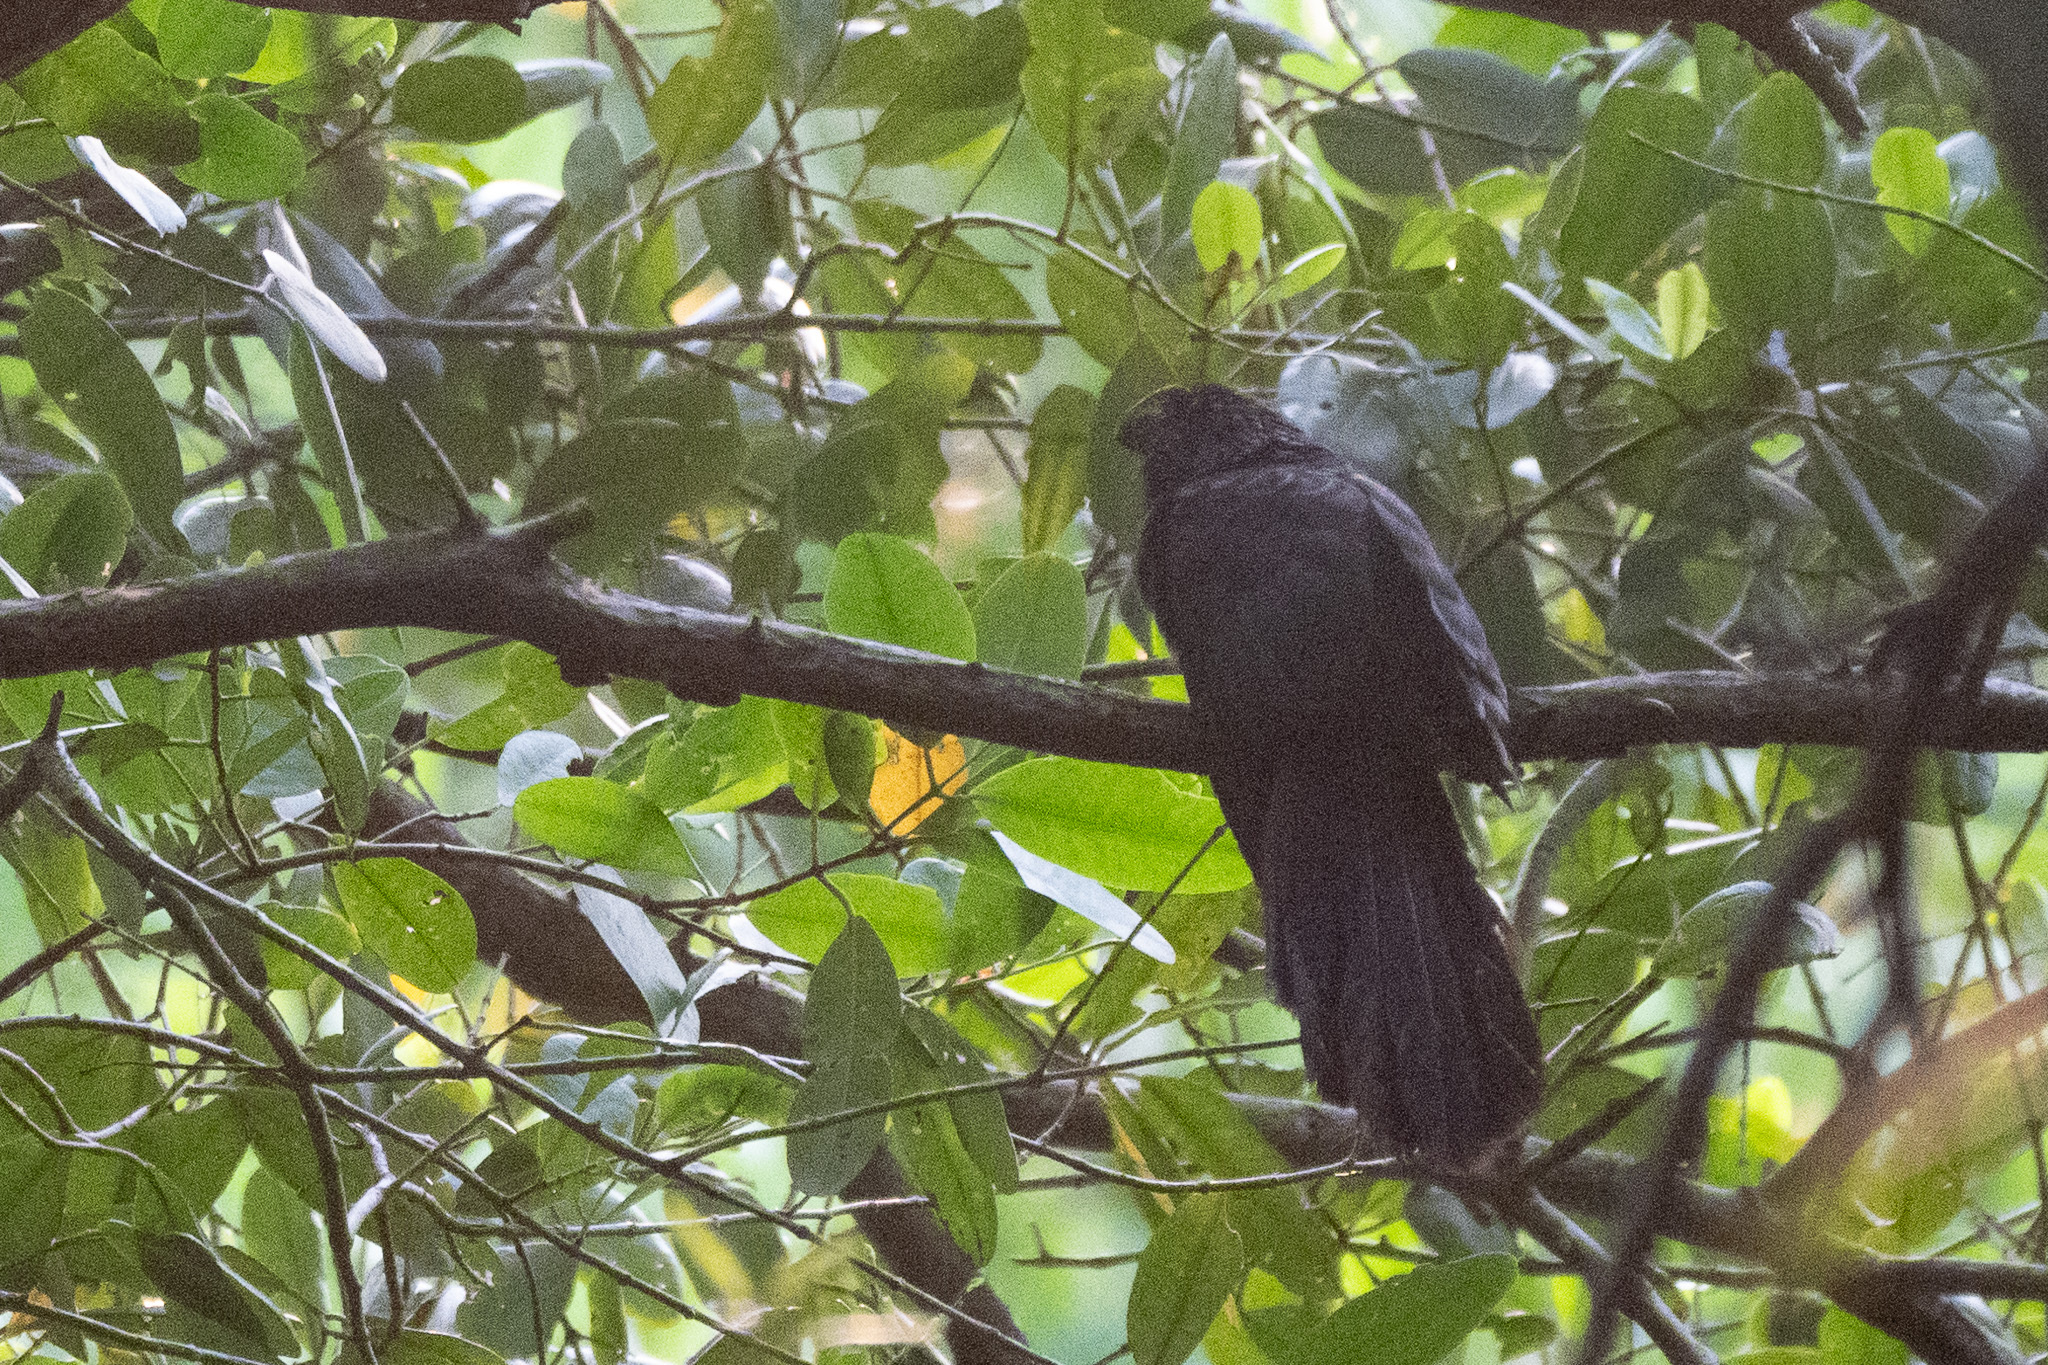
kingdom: Animalia
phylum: Chordata
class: Aves
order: Cuculiformes
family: Cuculidae
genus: Crotophaga
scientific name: Crotophaga ani
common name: Smooth-billed ani
